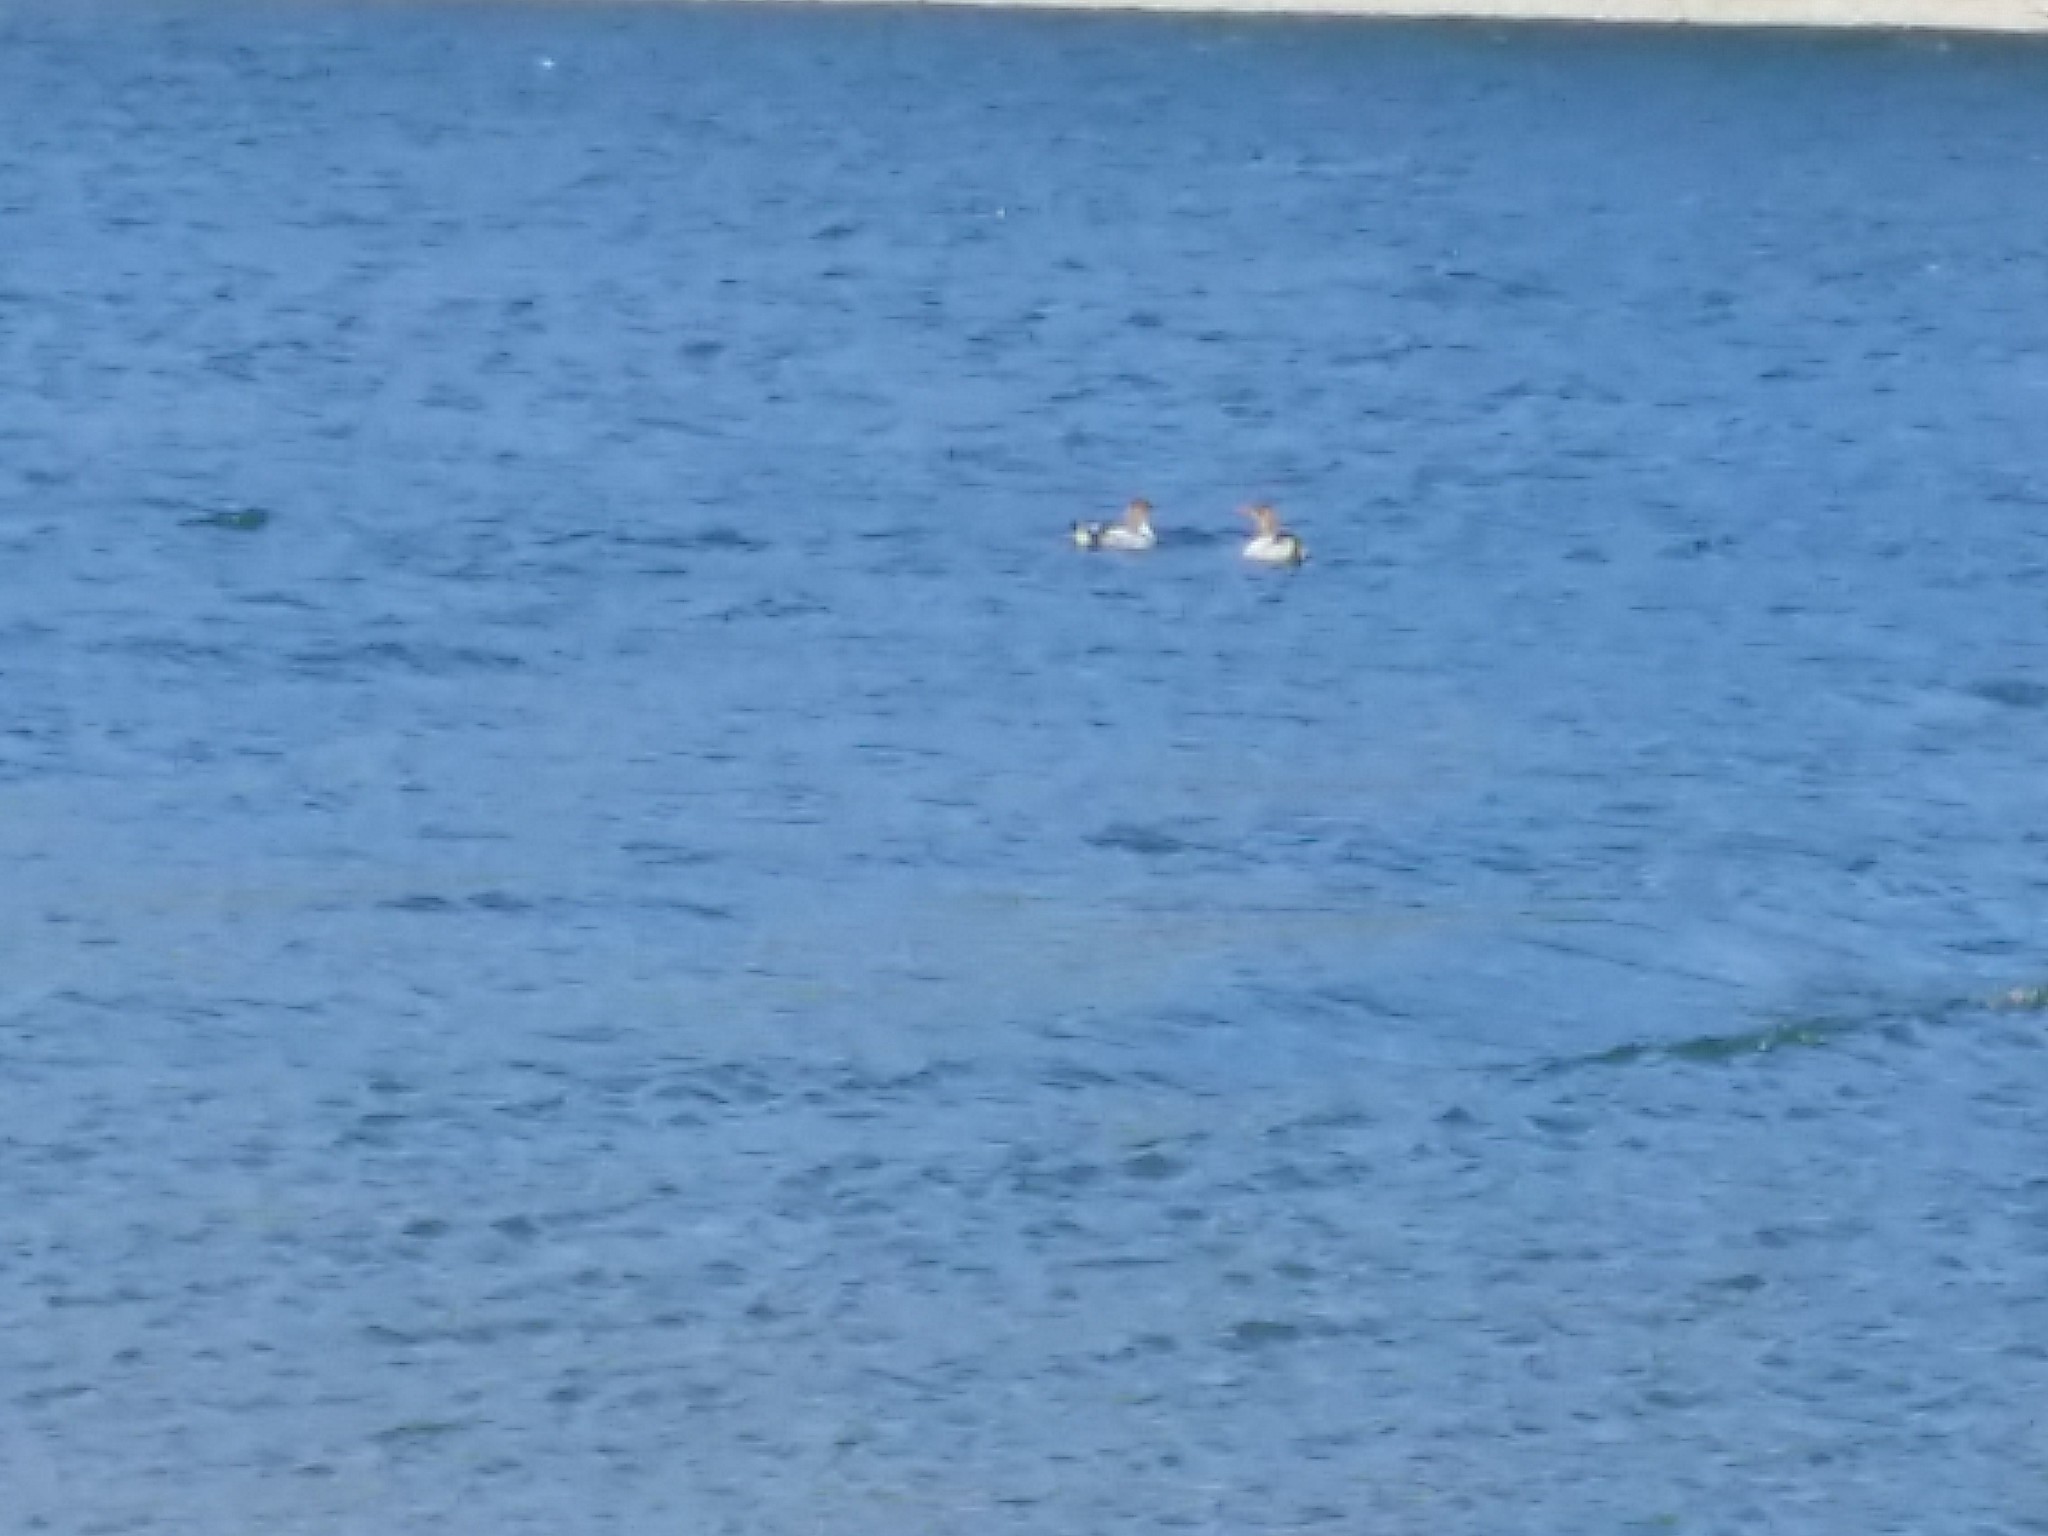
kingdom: Animalia
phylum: Chordata
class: Aves
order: Anseriformes
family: Anatidae
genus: Mergus
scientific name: Mergus serrator
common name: Red-breasted merganser
